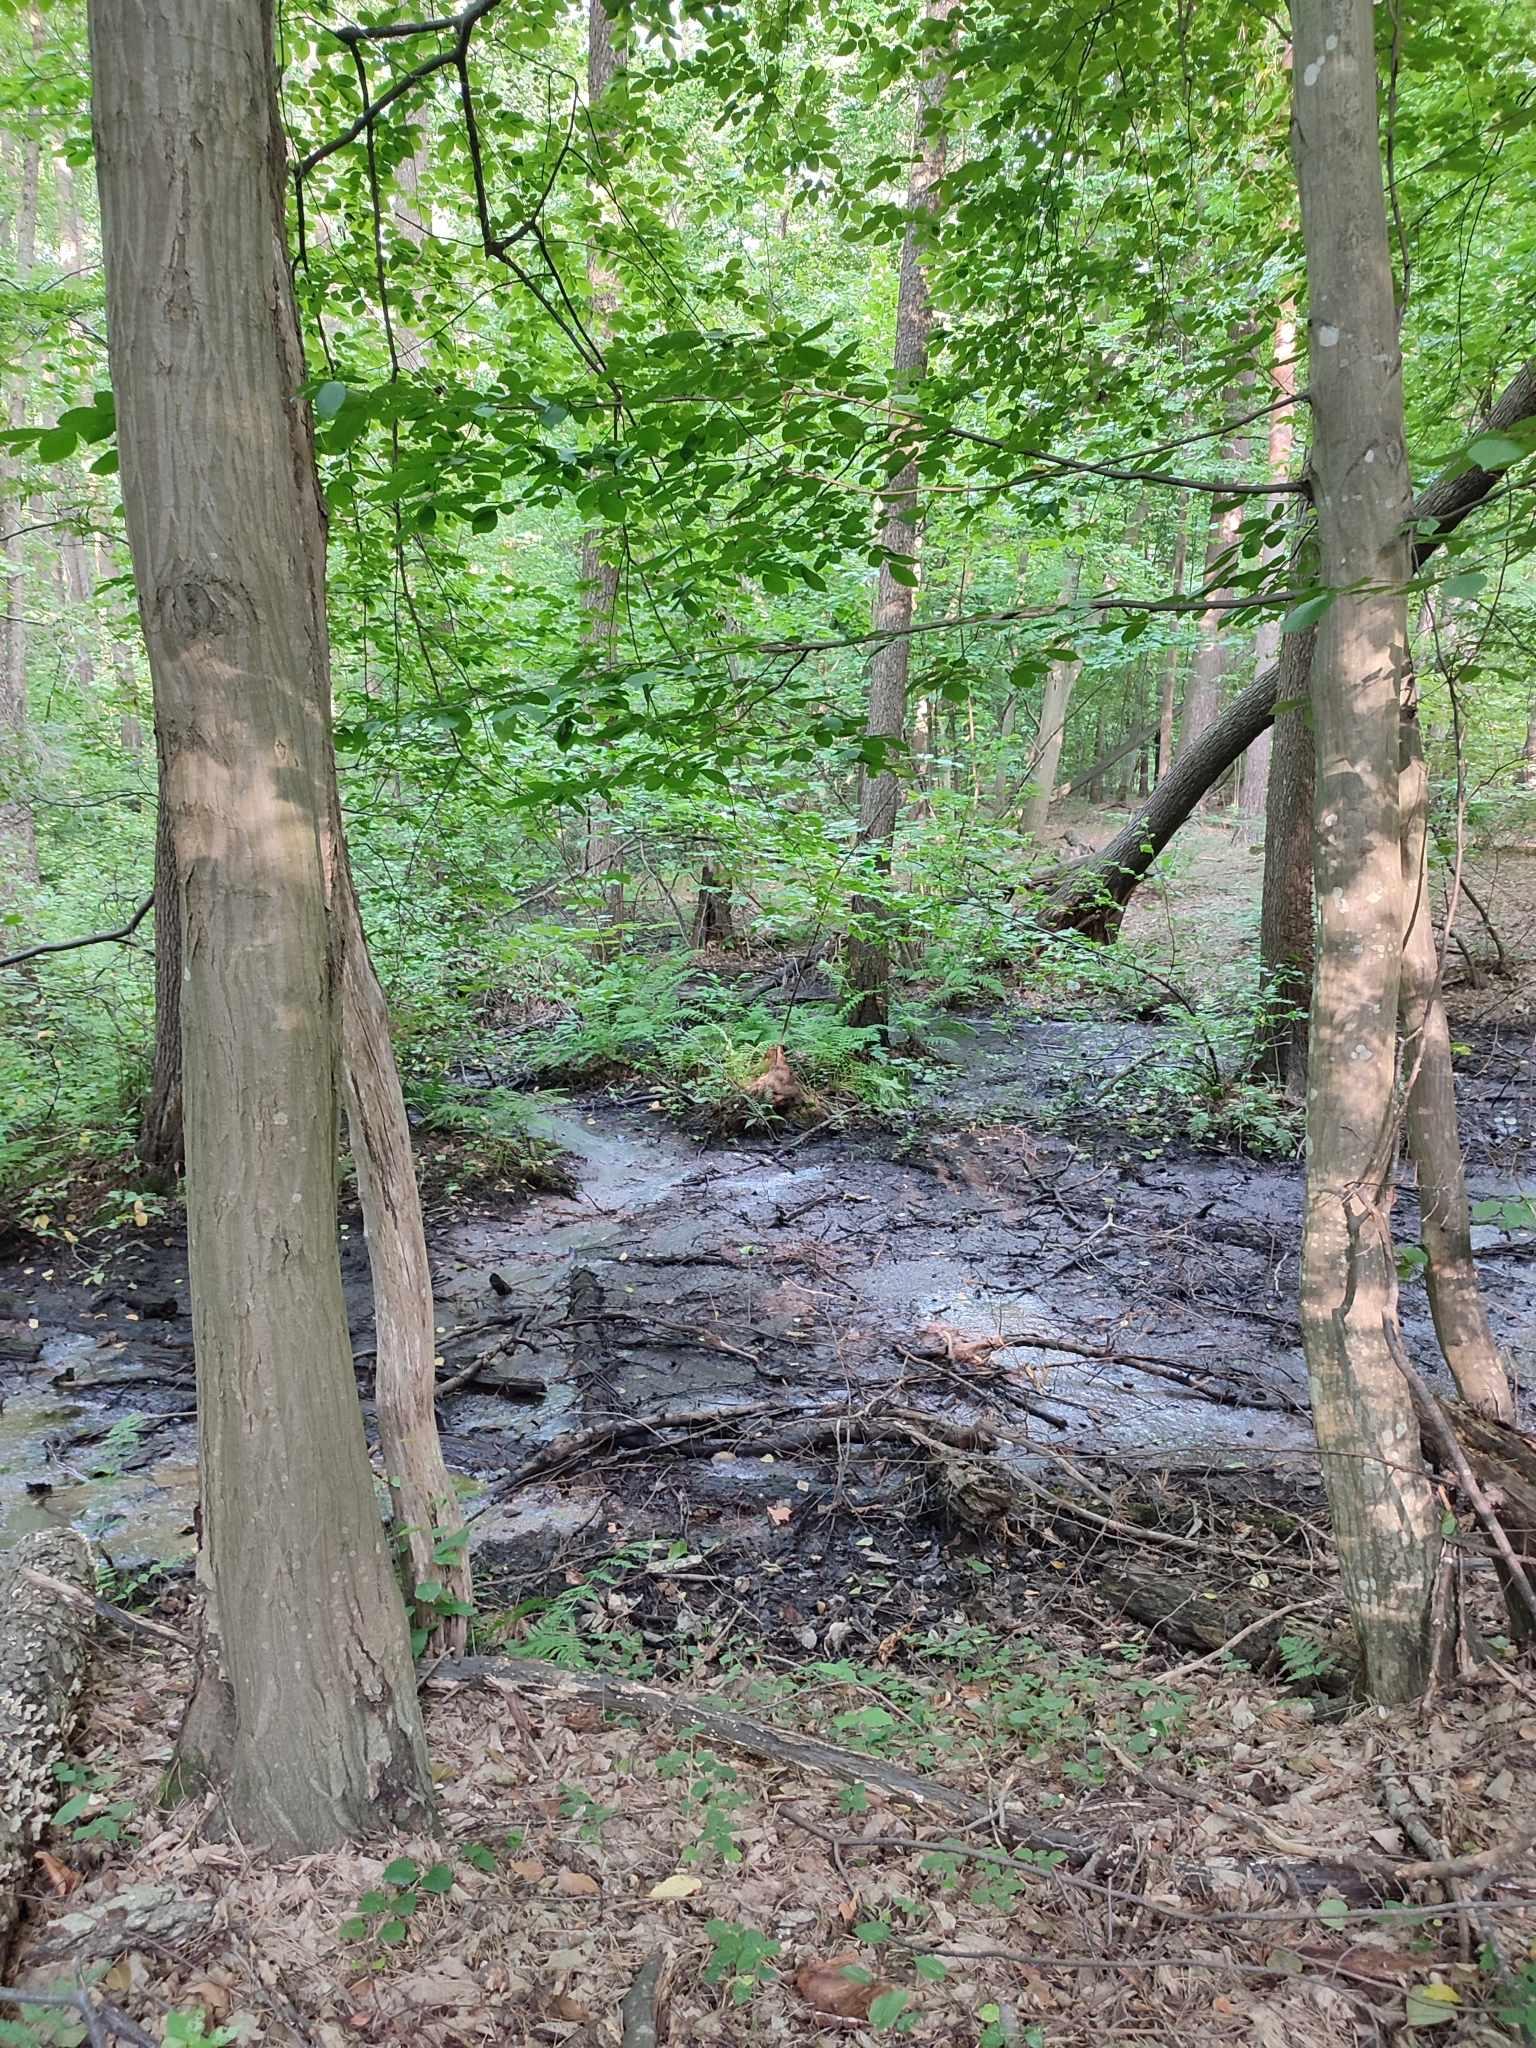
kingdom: Plantae
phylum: Tracheophyta
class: Magnoliopsida
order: Fagales
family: Betulaceae
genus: Carpinus
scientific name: Carpinus betulus
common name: Hornbeam
